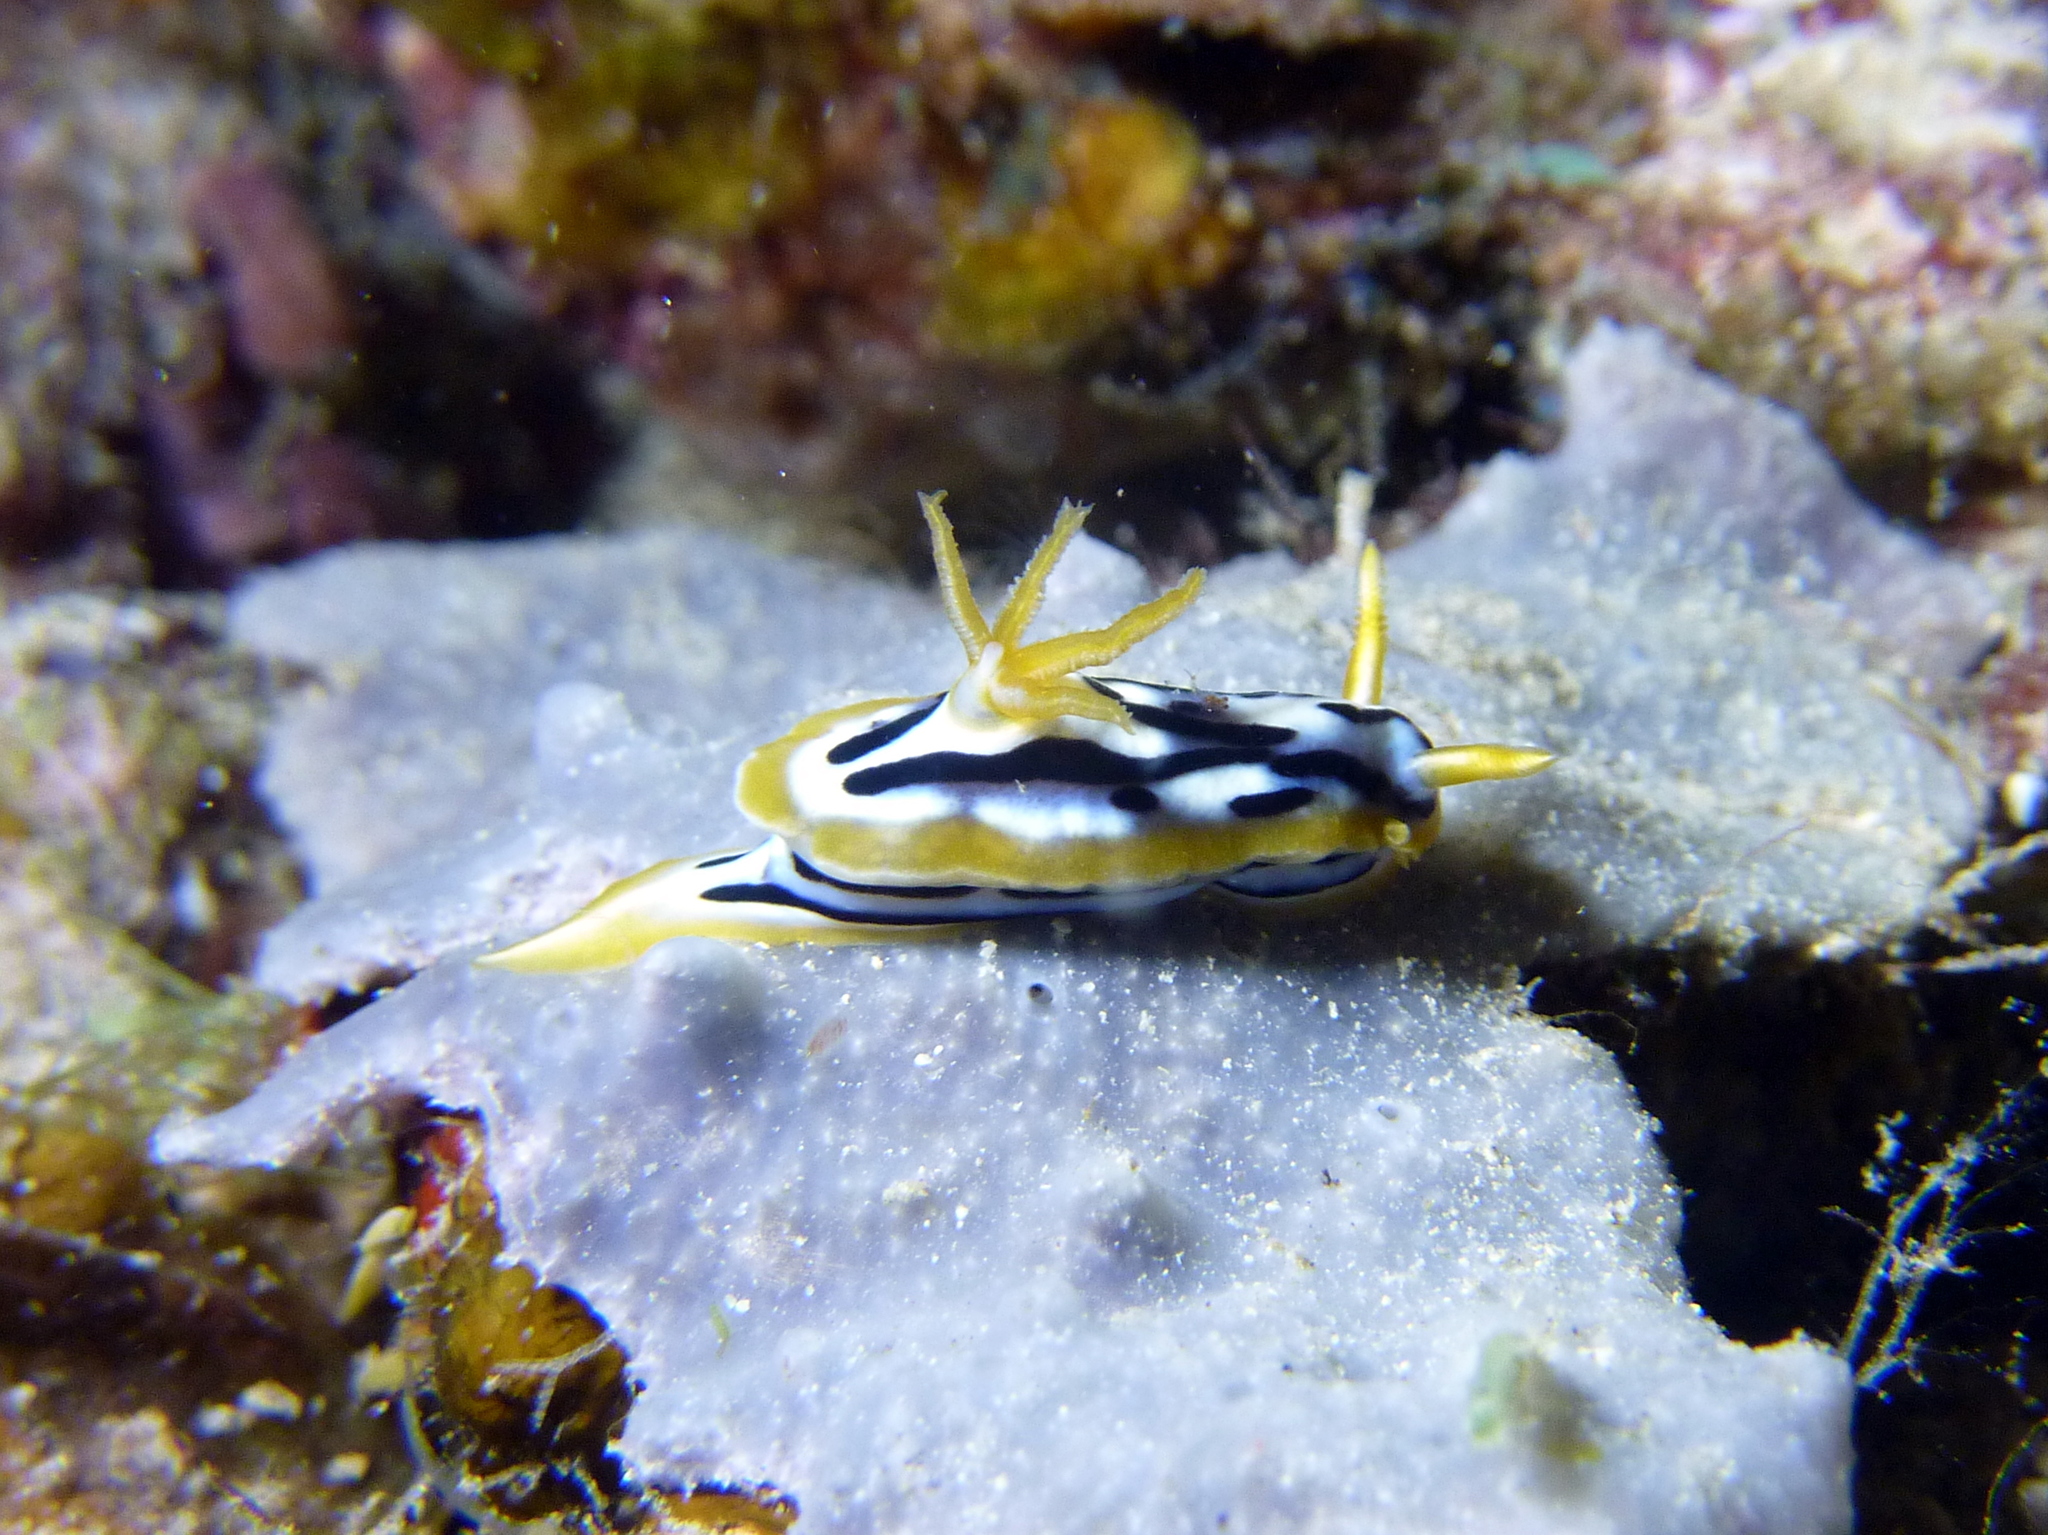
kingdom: Animalia
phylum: Mollusca
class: Gastropoda
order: Nudibranchia
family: Chromodorididae
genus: Chromodoris
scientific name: Chromodoris strigata
